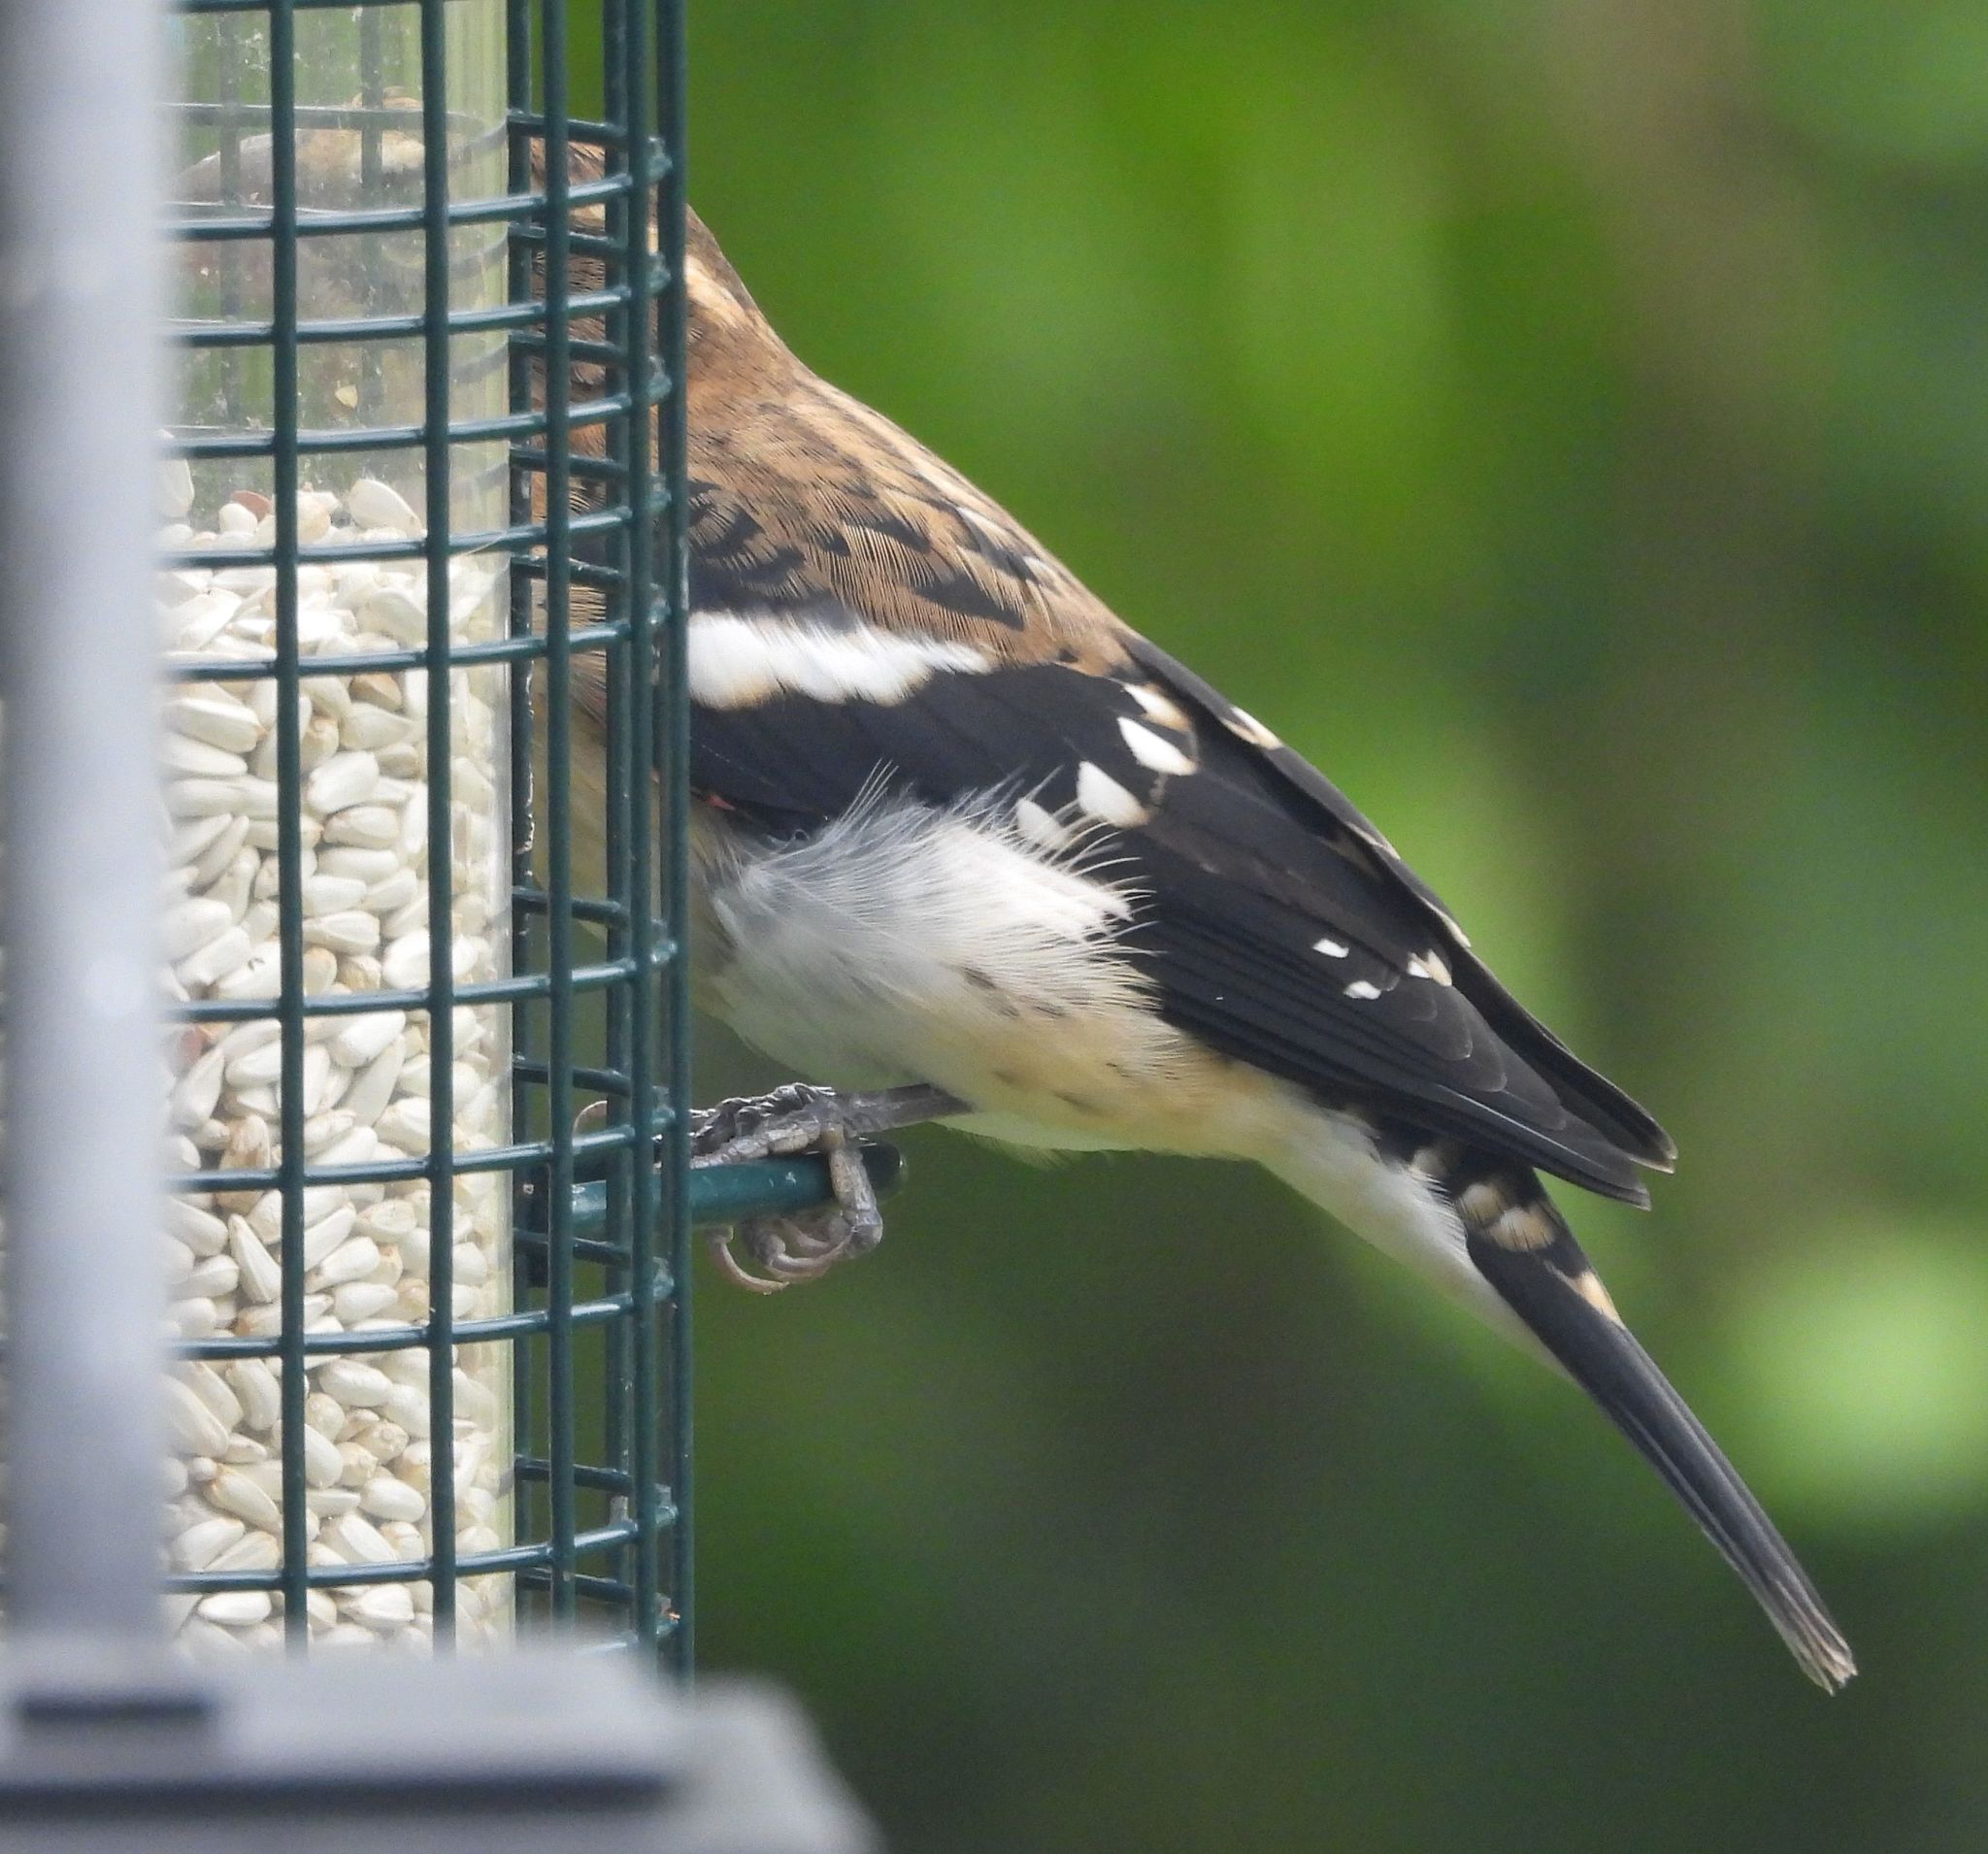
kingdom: Animalia
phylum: Chordata
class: Aves
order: Passeriformes
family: Cardinalidae
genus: Pheucticus
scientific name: Pheucticus ludovicianus
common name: Rose-breasted grosbeak
